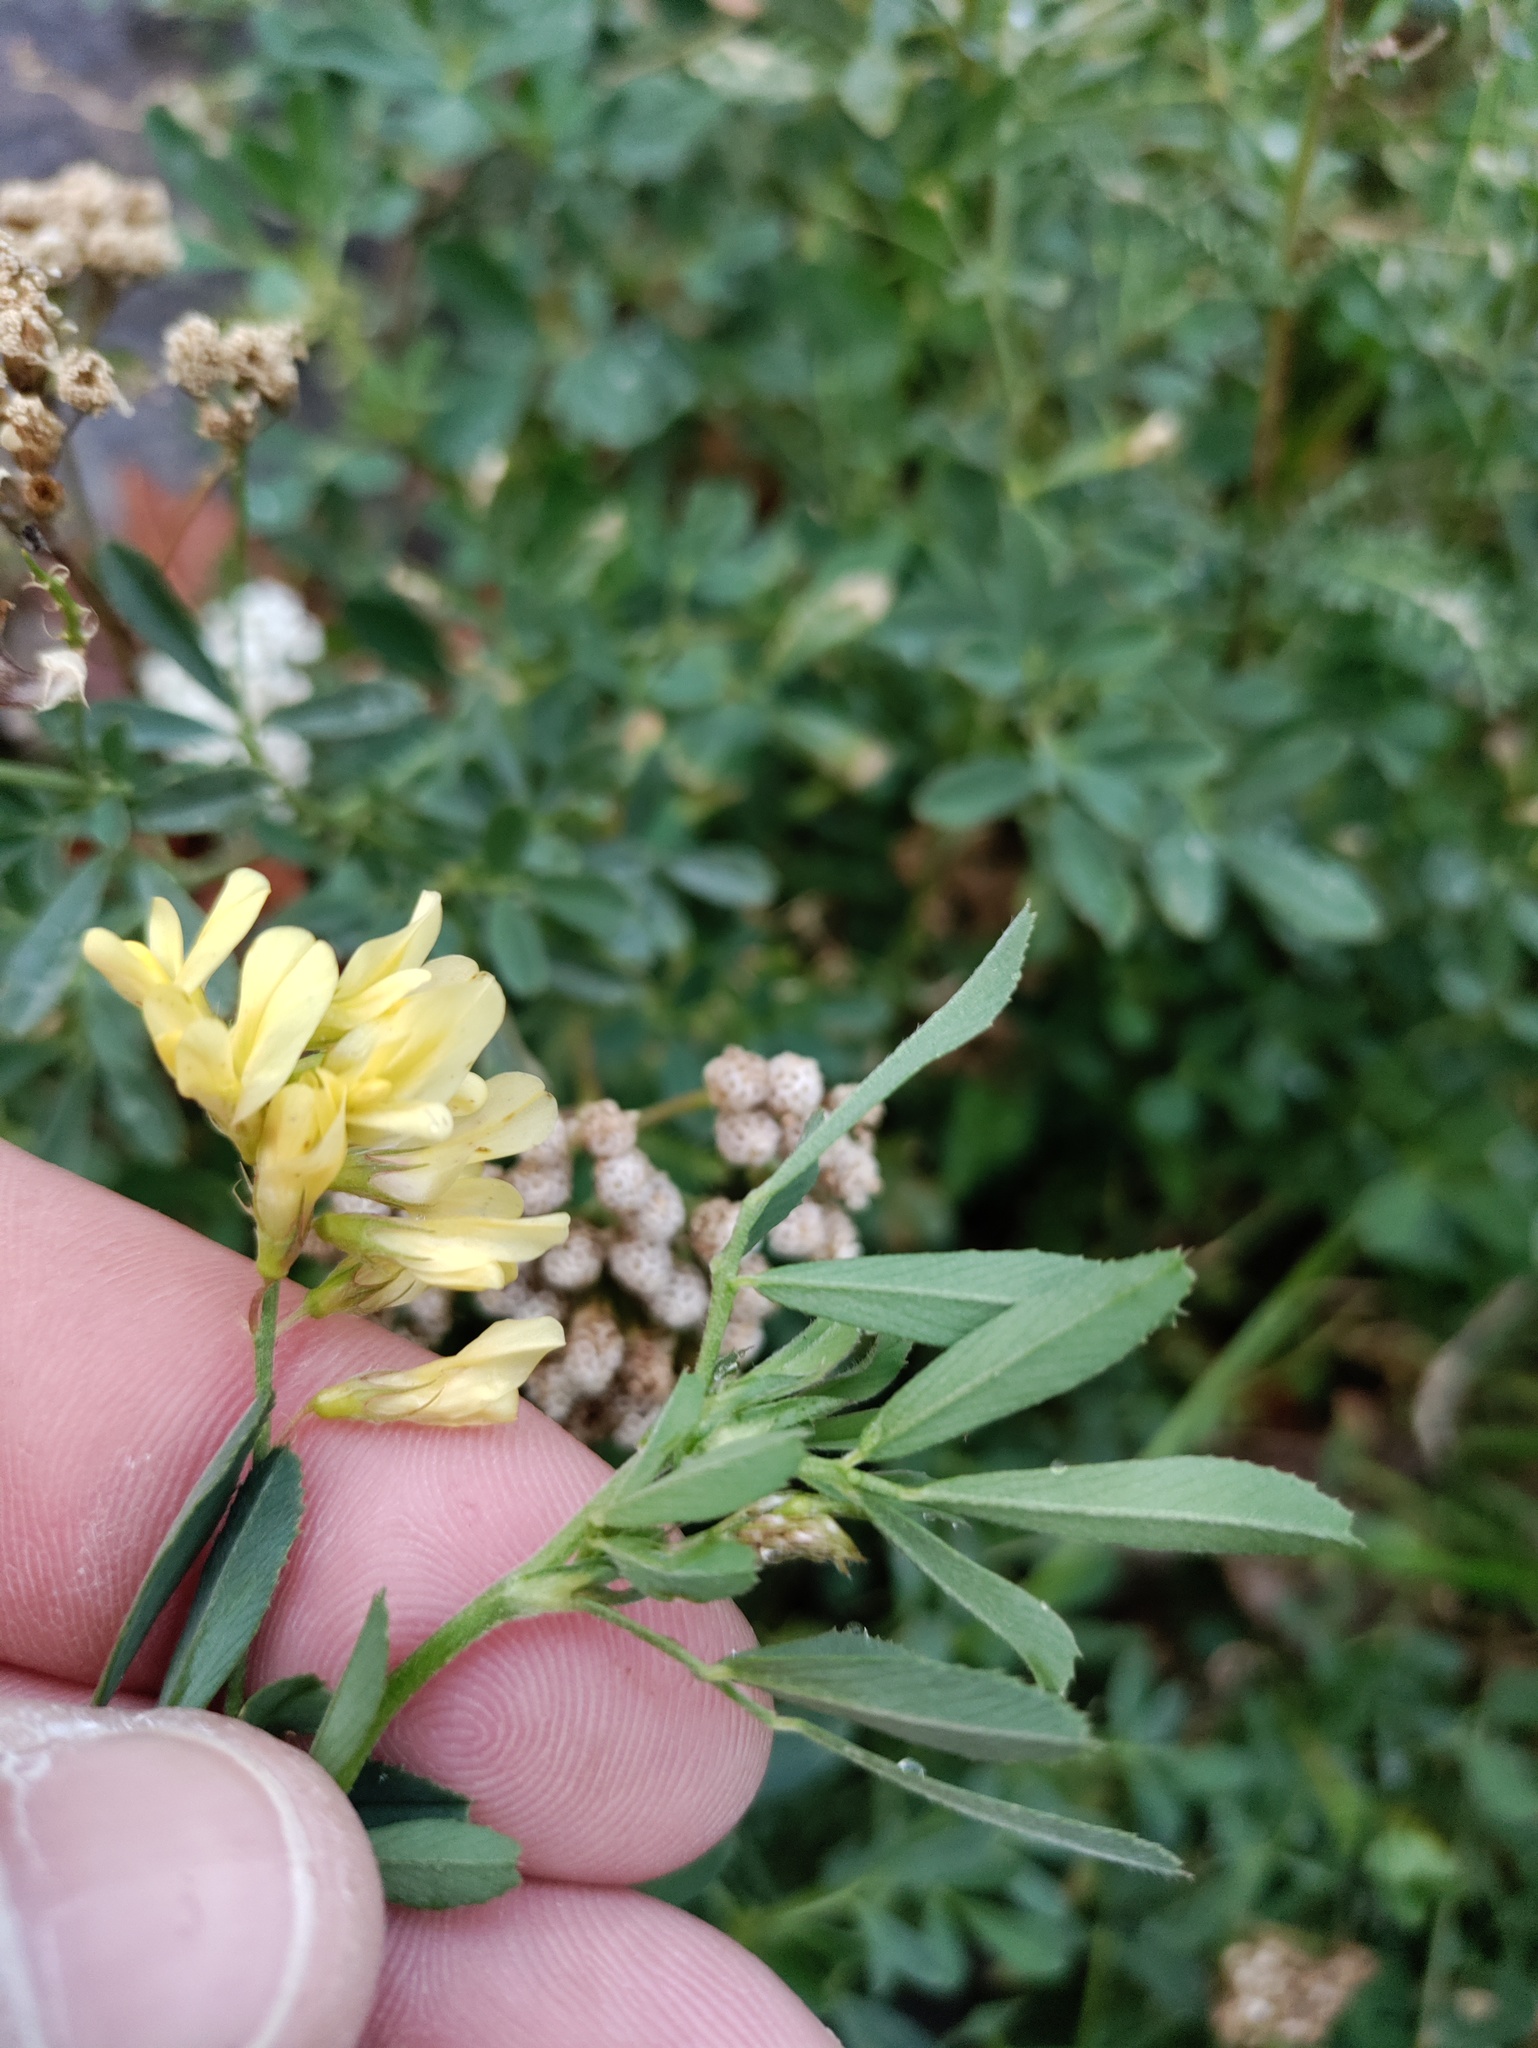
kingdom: Plantae
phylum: Tracheophyta
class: Magnoliopsida
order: Fabales
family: Fabaceae
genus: Medicago
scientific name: Medicago varia
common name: Sand lucerne
